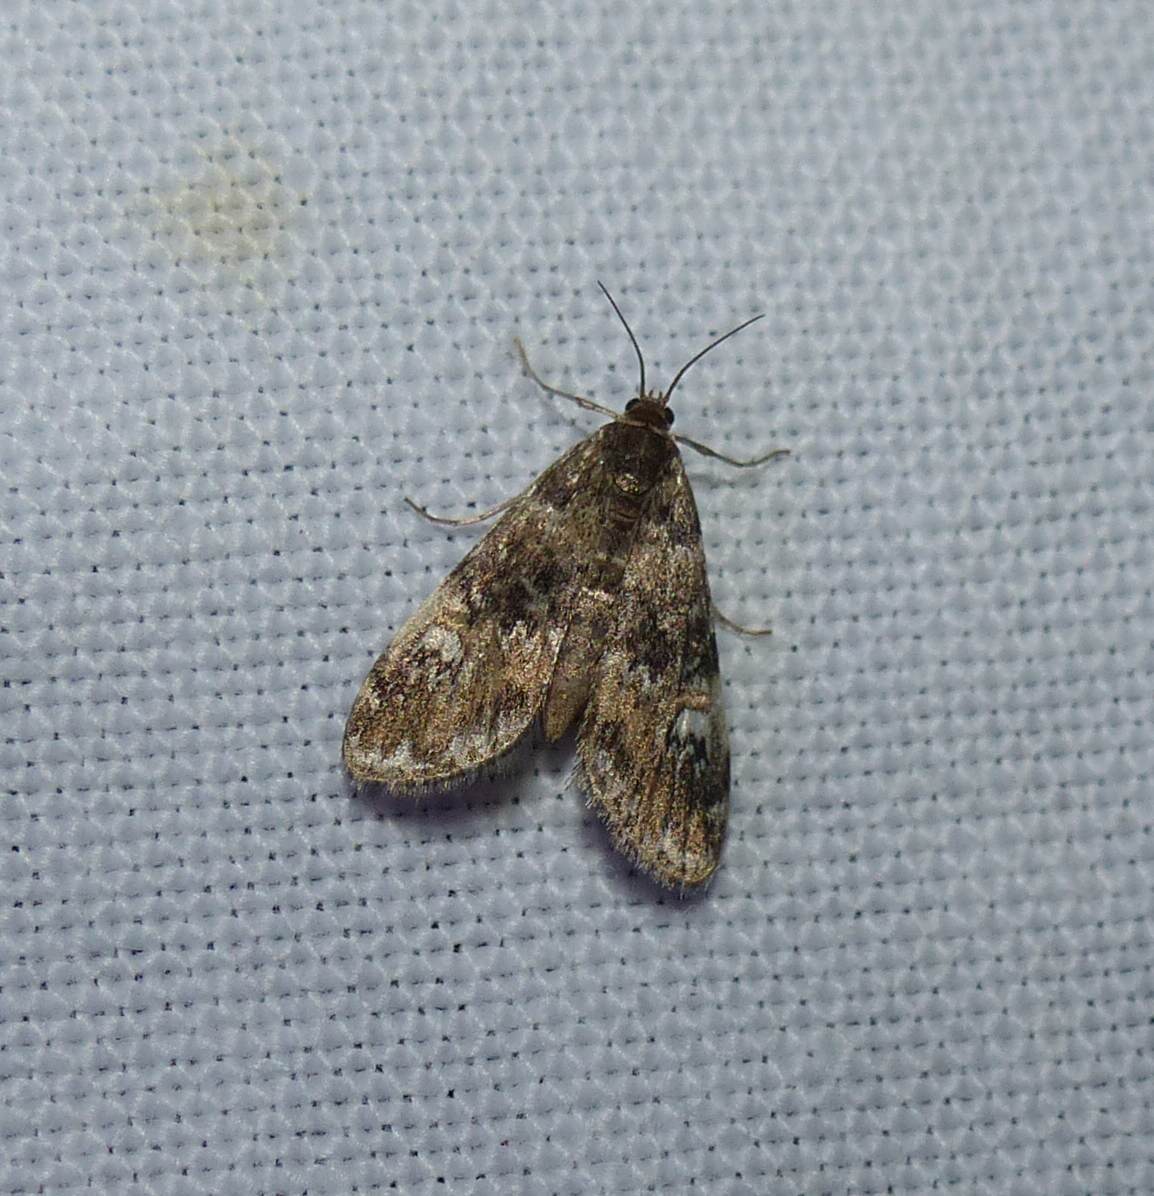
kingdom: Animalia
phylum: Arthropoda
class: Insecta
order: Lepidoptera
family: Crambidae
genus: Elophila
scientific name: Elophila obliteralis
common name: Waterlily leafcutter moth
